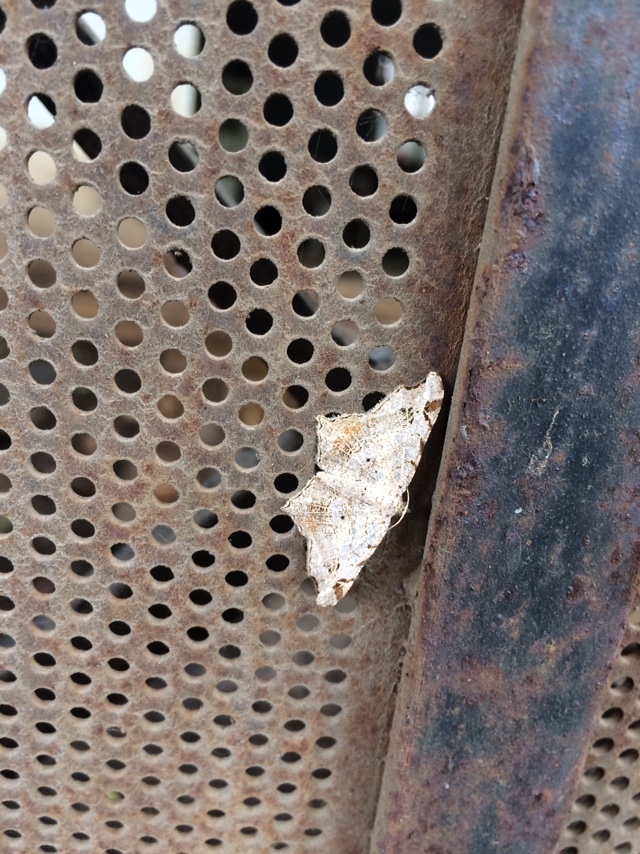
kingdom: Animalia
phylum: Arthropoda
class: Insecta
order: Lepidoptera
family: Geometridae
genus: Chiasmia
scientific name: Chiasmia emersaria
